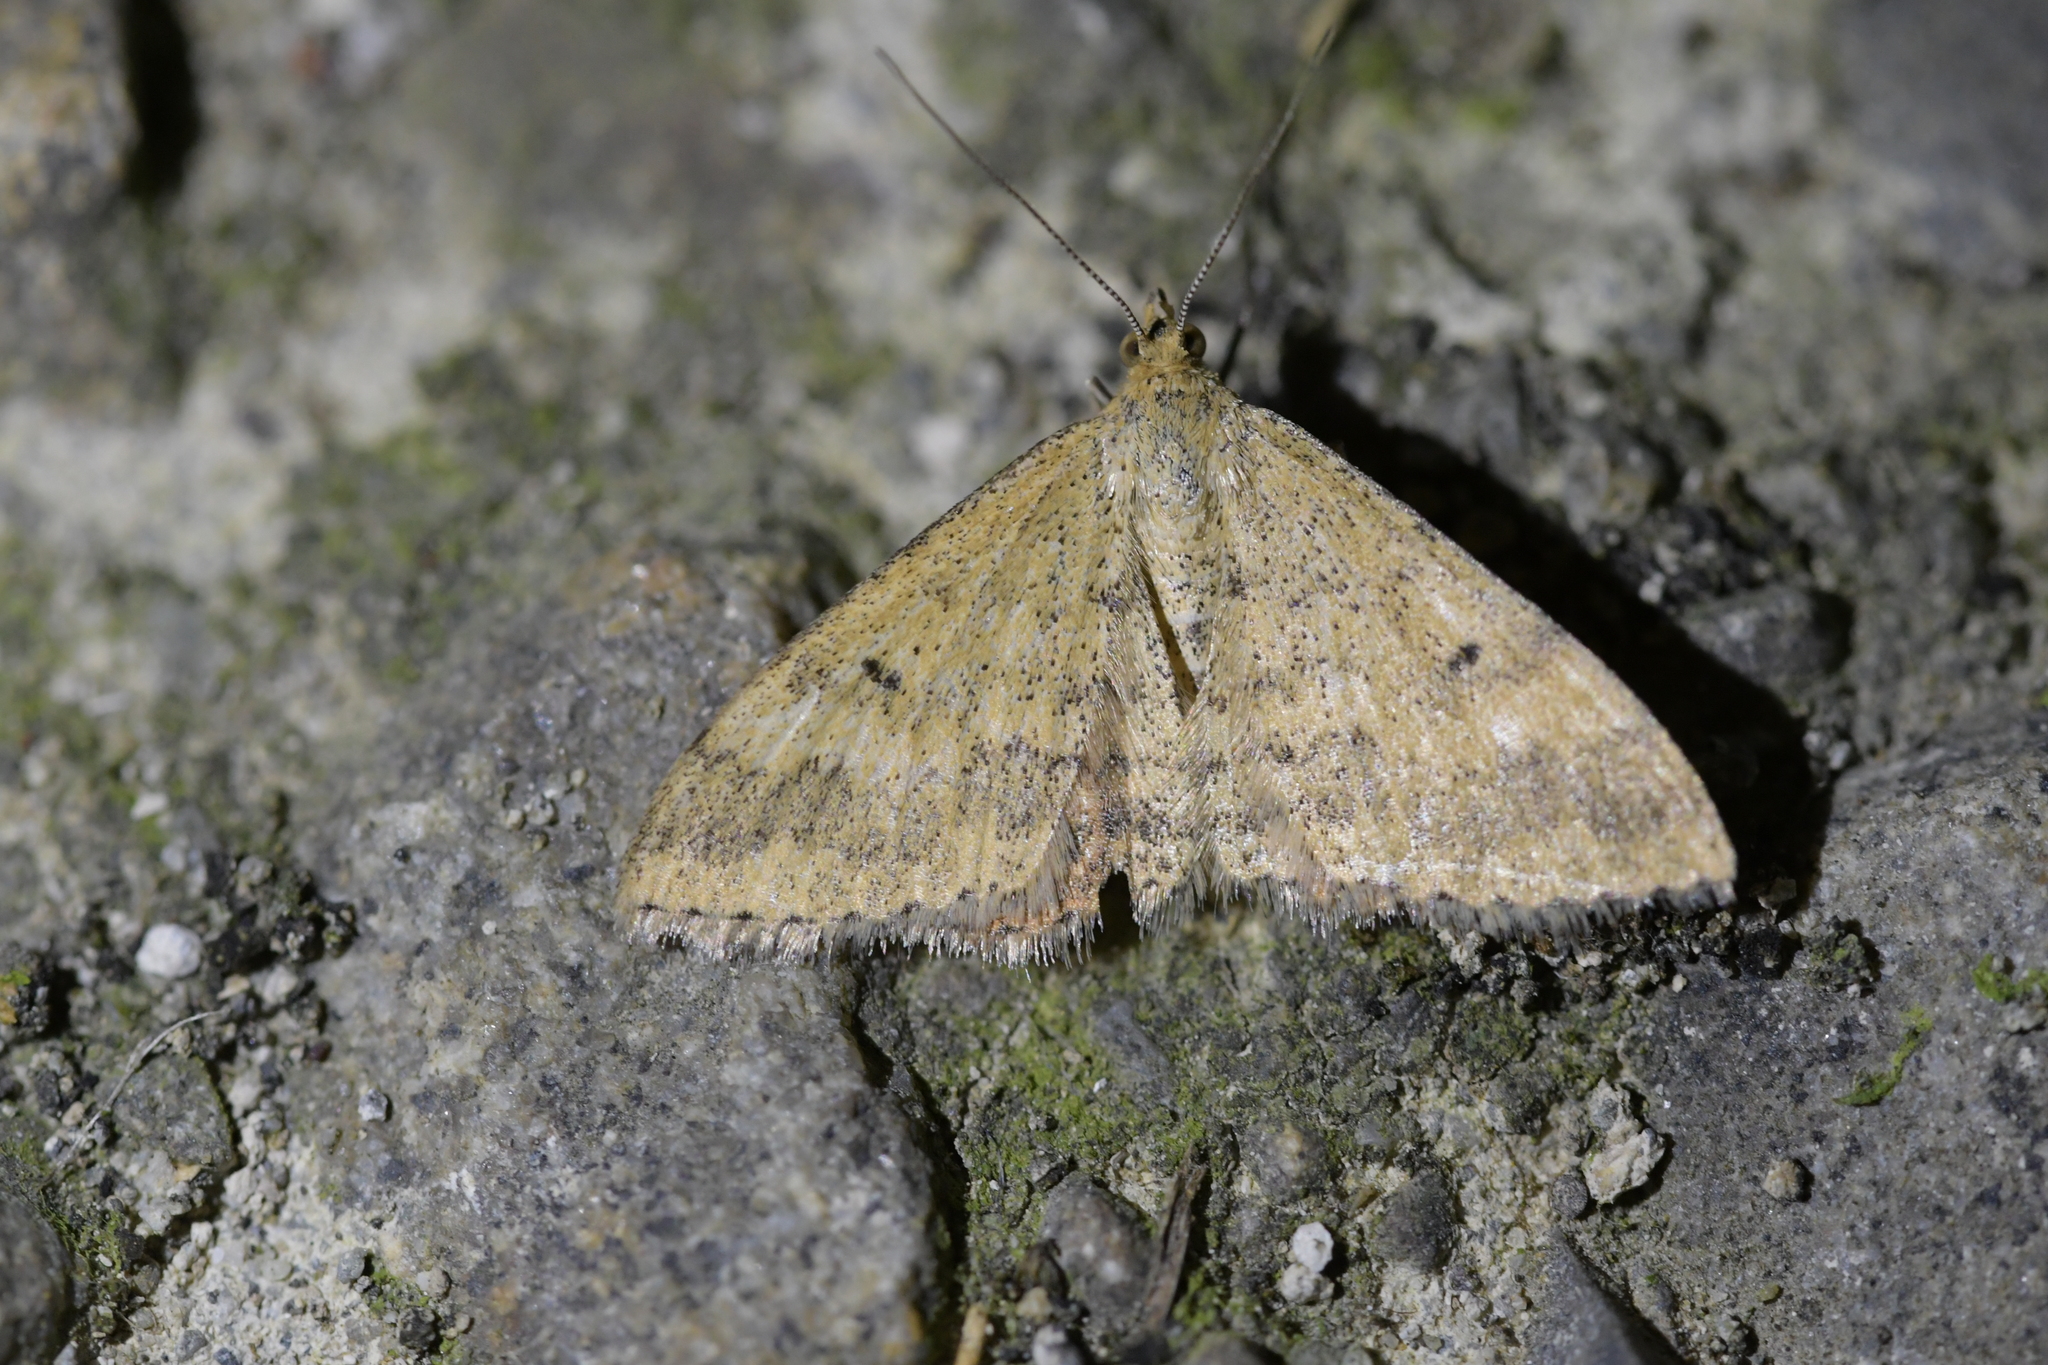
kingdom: Animalia
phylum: Arthropoda
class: Insecta
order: Lepidoptera
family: Geometridae
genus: Scopula
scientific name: Scopula rubraria
